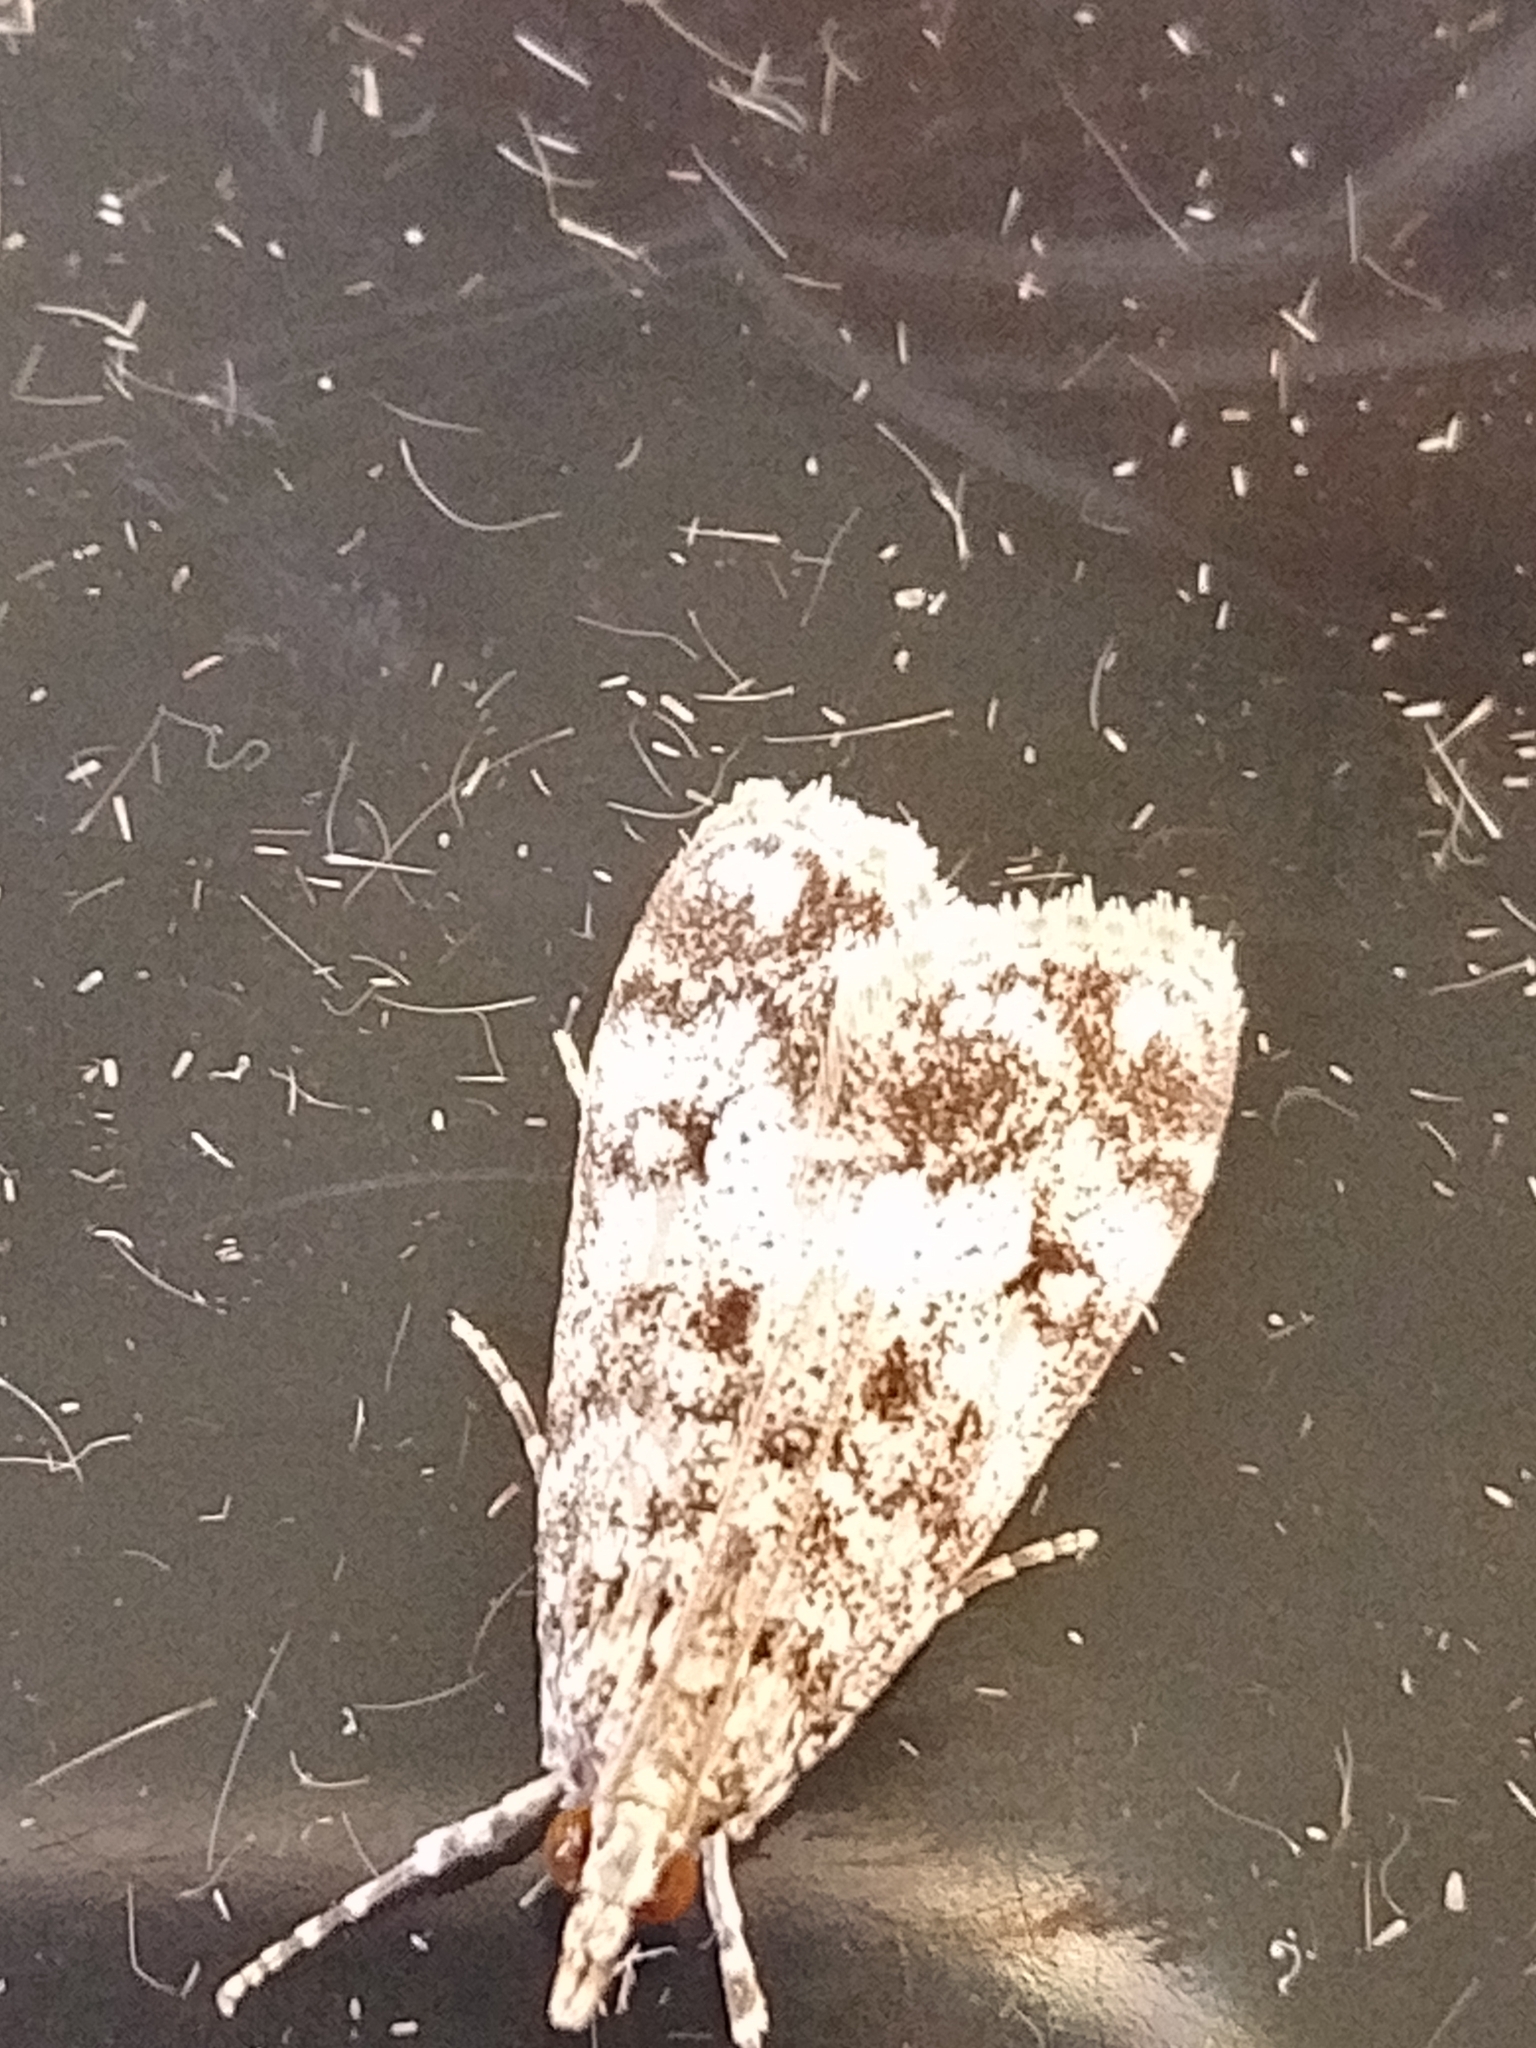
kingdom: Animalia
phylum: Arthropoda
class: Insecta
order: Lepidoptera
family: Crambidae
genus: Eudonia
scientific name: Eudonia lacustrata
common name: Little grey
